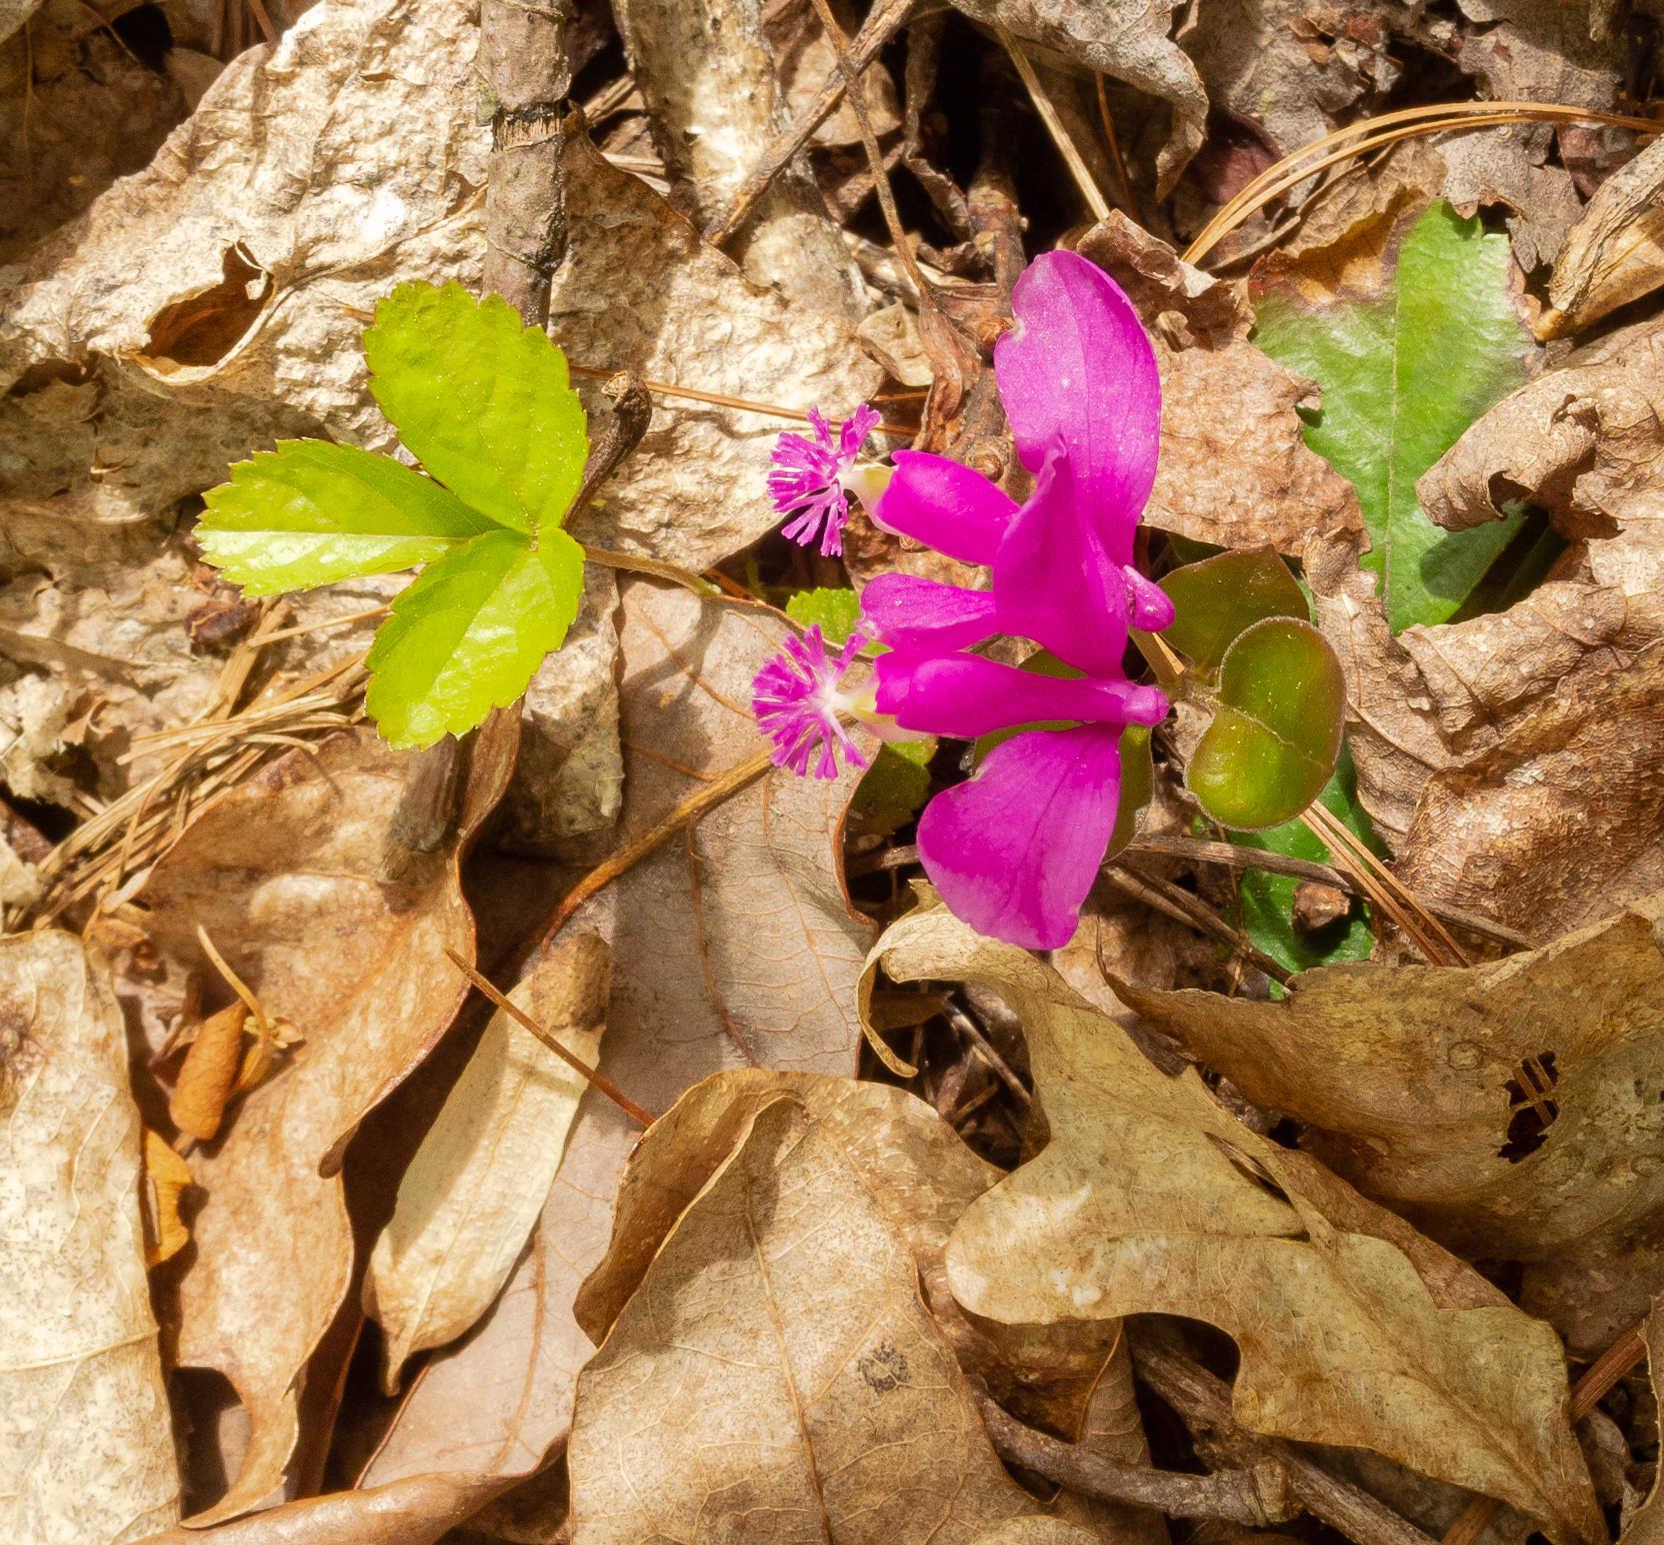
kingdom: Plantae
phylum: Tracheophyta
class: Magnoliopsida
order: Fabales
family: Polygalaceae
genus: Polygaloides
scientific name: Polygaloides paucifolia
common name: Bird-on-the-wing
